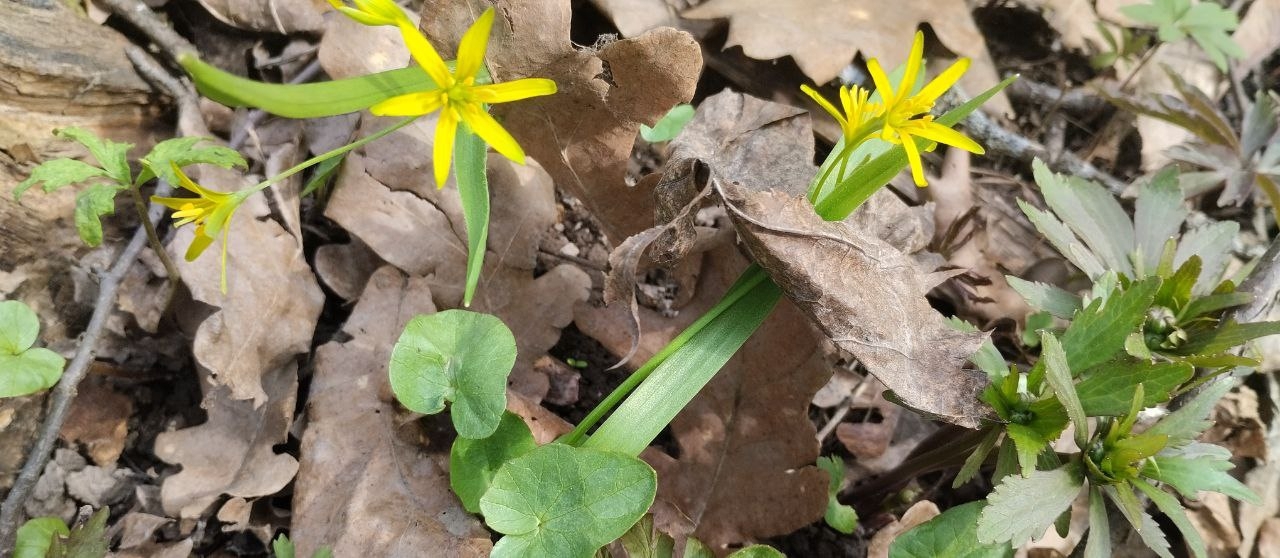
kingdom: Plantae
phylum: Tracheophyta
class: Liliopsida
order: Liliales
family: Liliaceae
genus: Gagea
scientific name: Gagea lutea
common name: Yellow star-of-bethlehem
